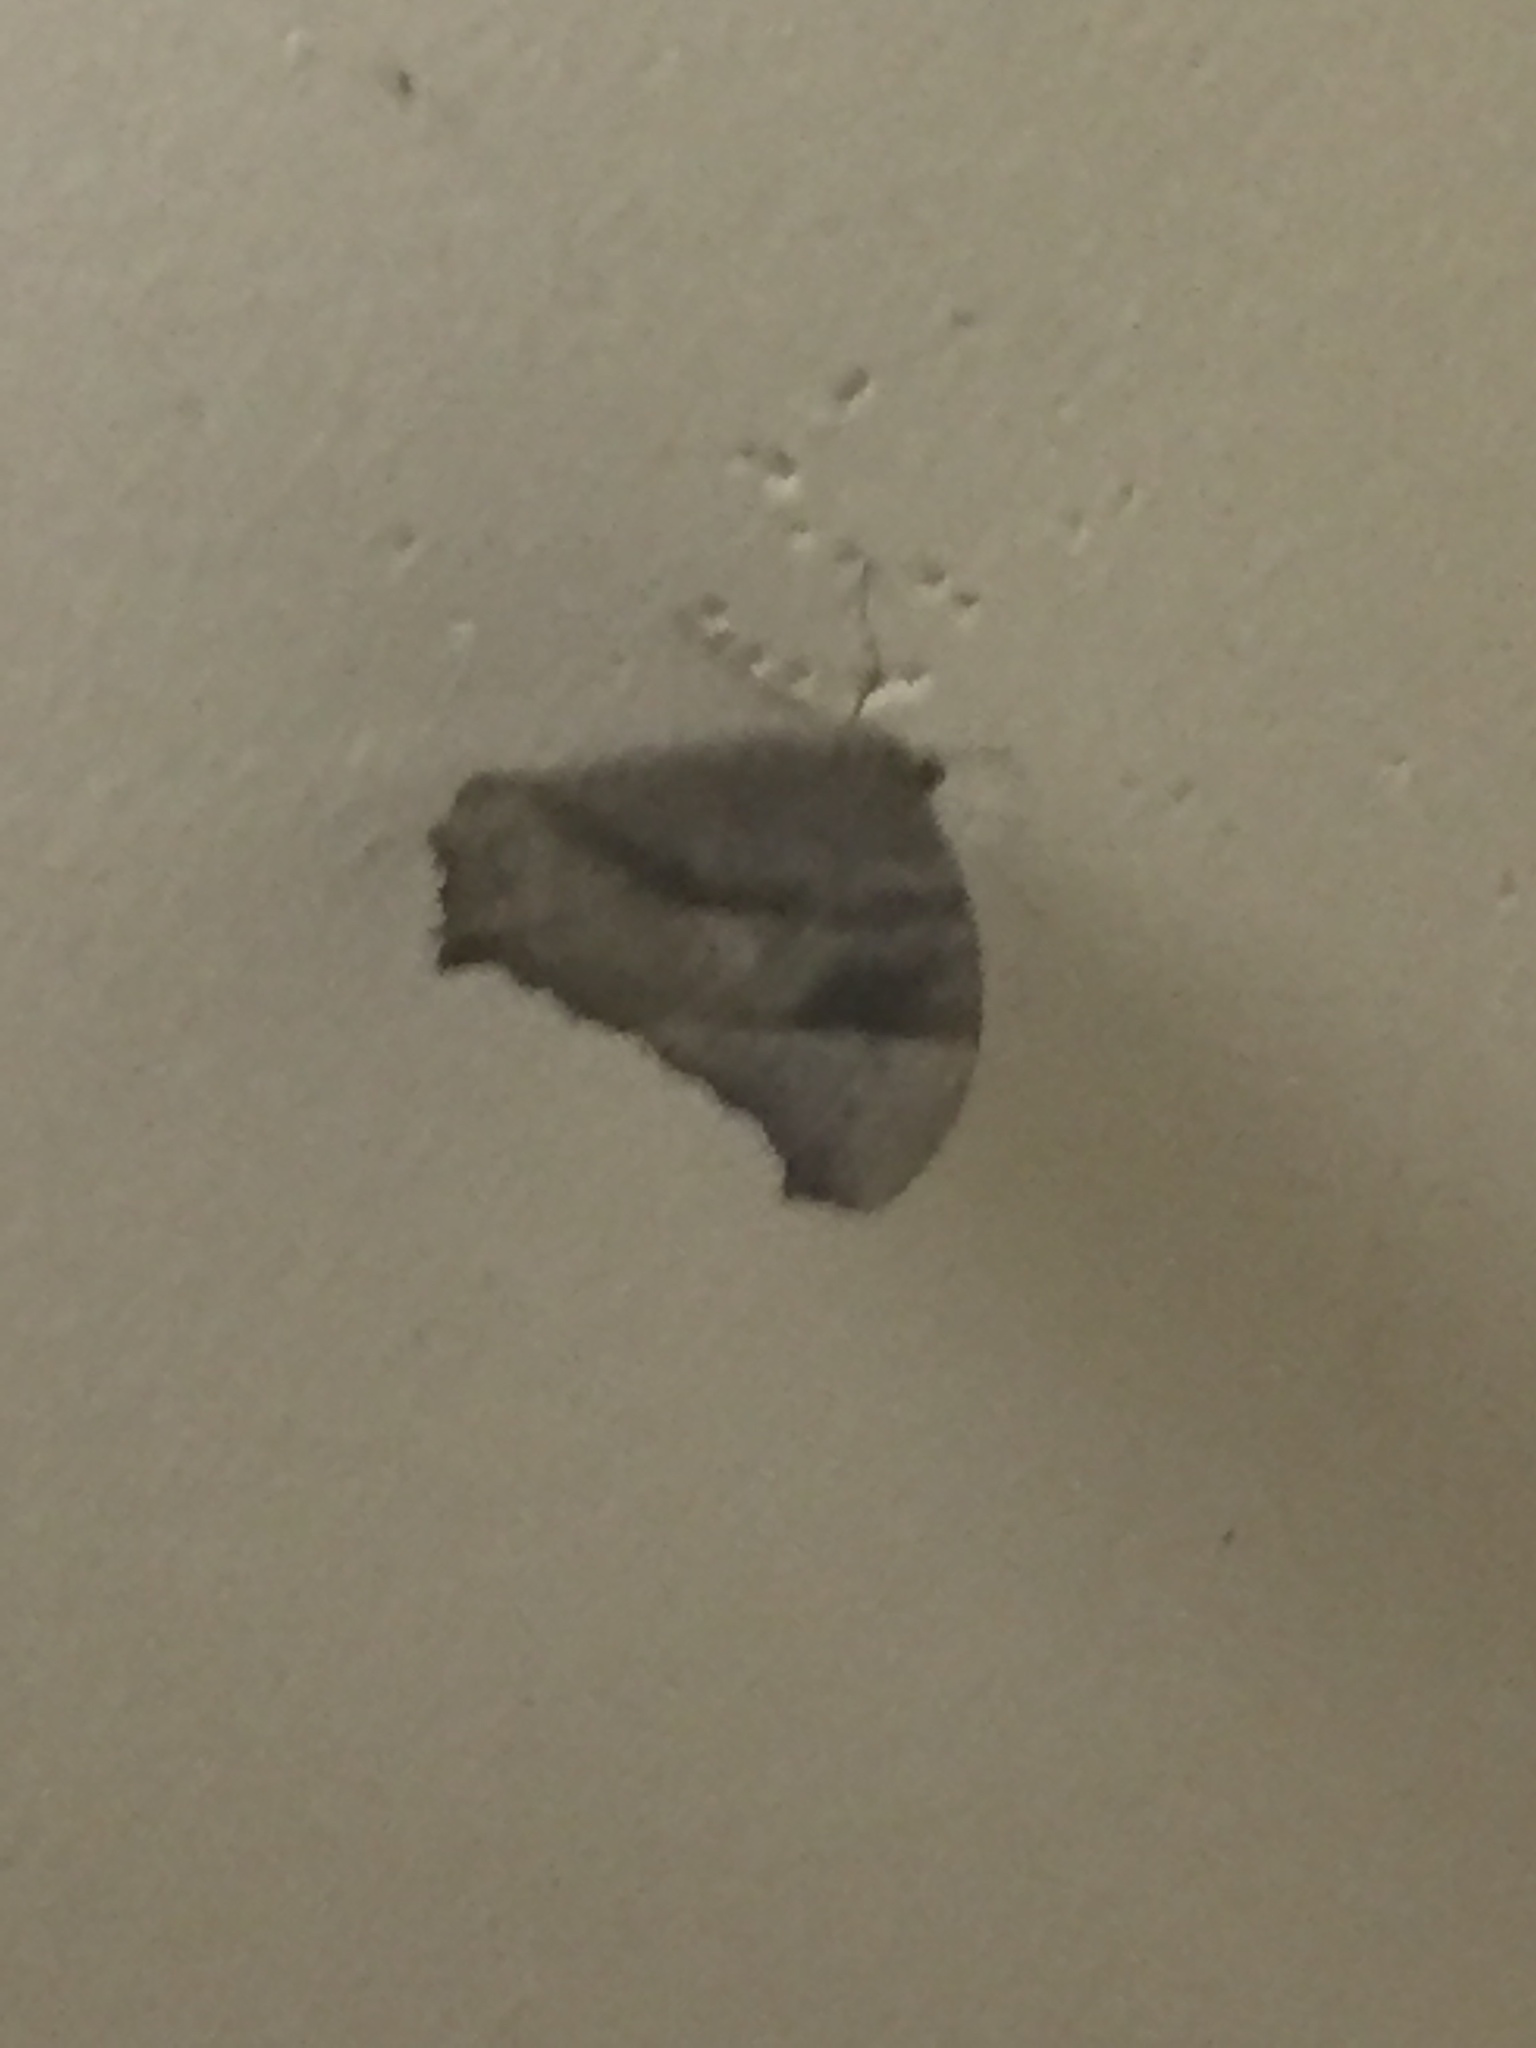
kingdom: Animalia
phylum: Arthropoda
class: Insecta
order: Lepidoptera
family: Nymphalidae
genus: Melanitis
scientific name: Melanitis leda
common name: Twilight brown
